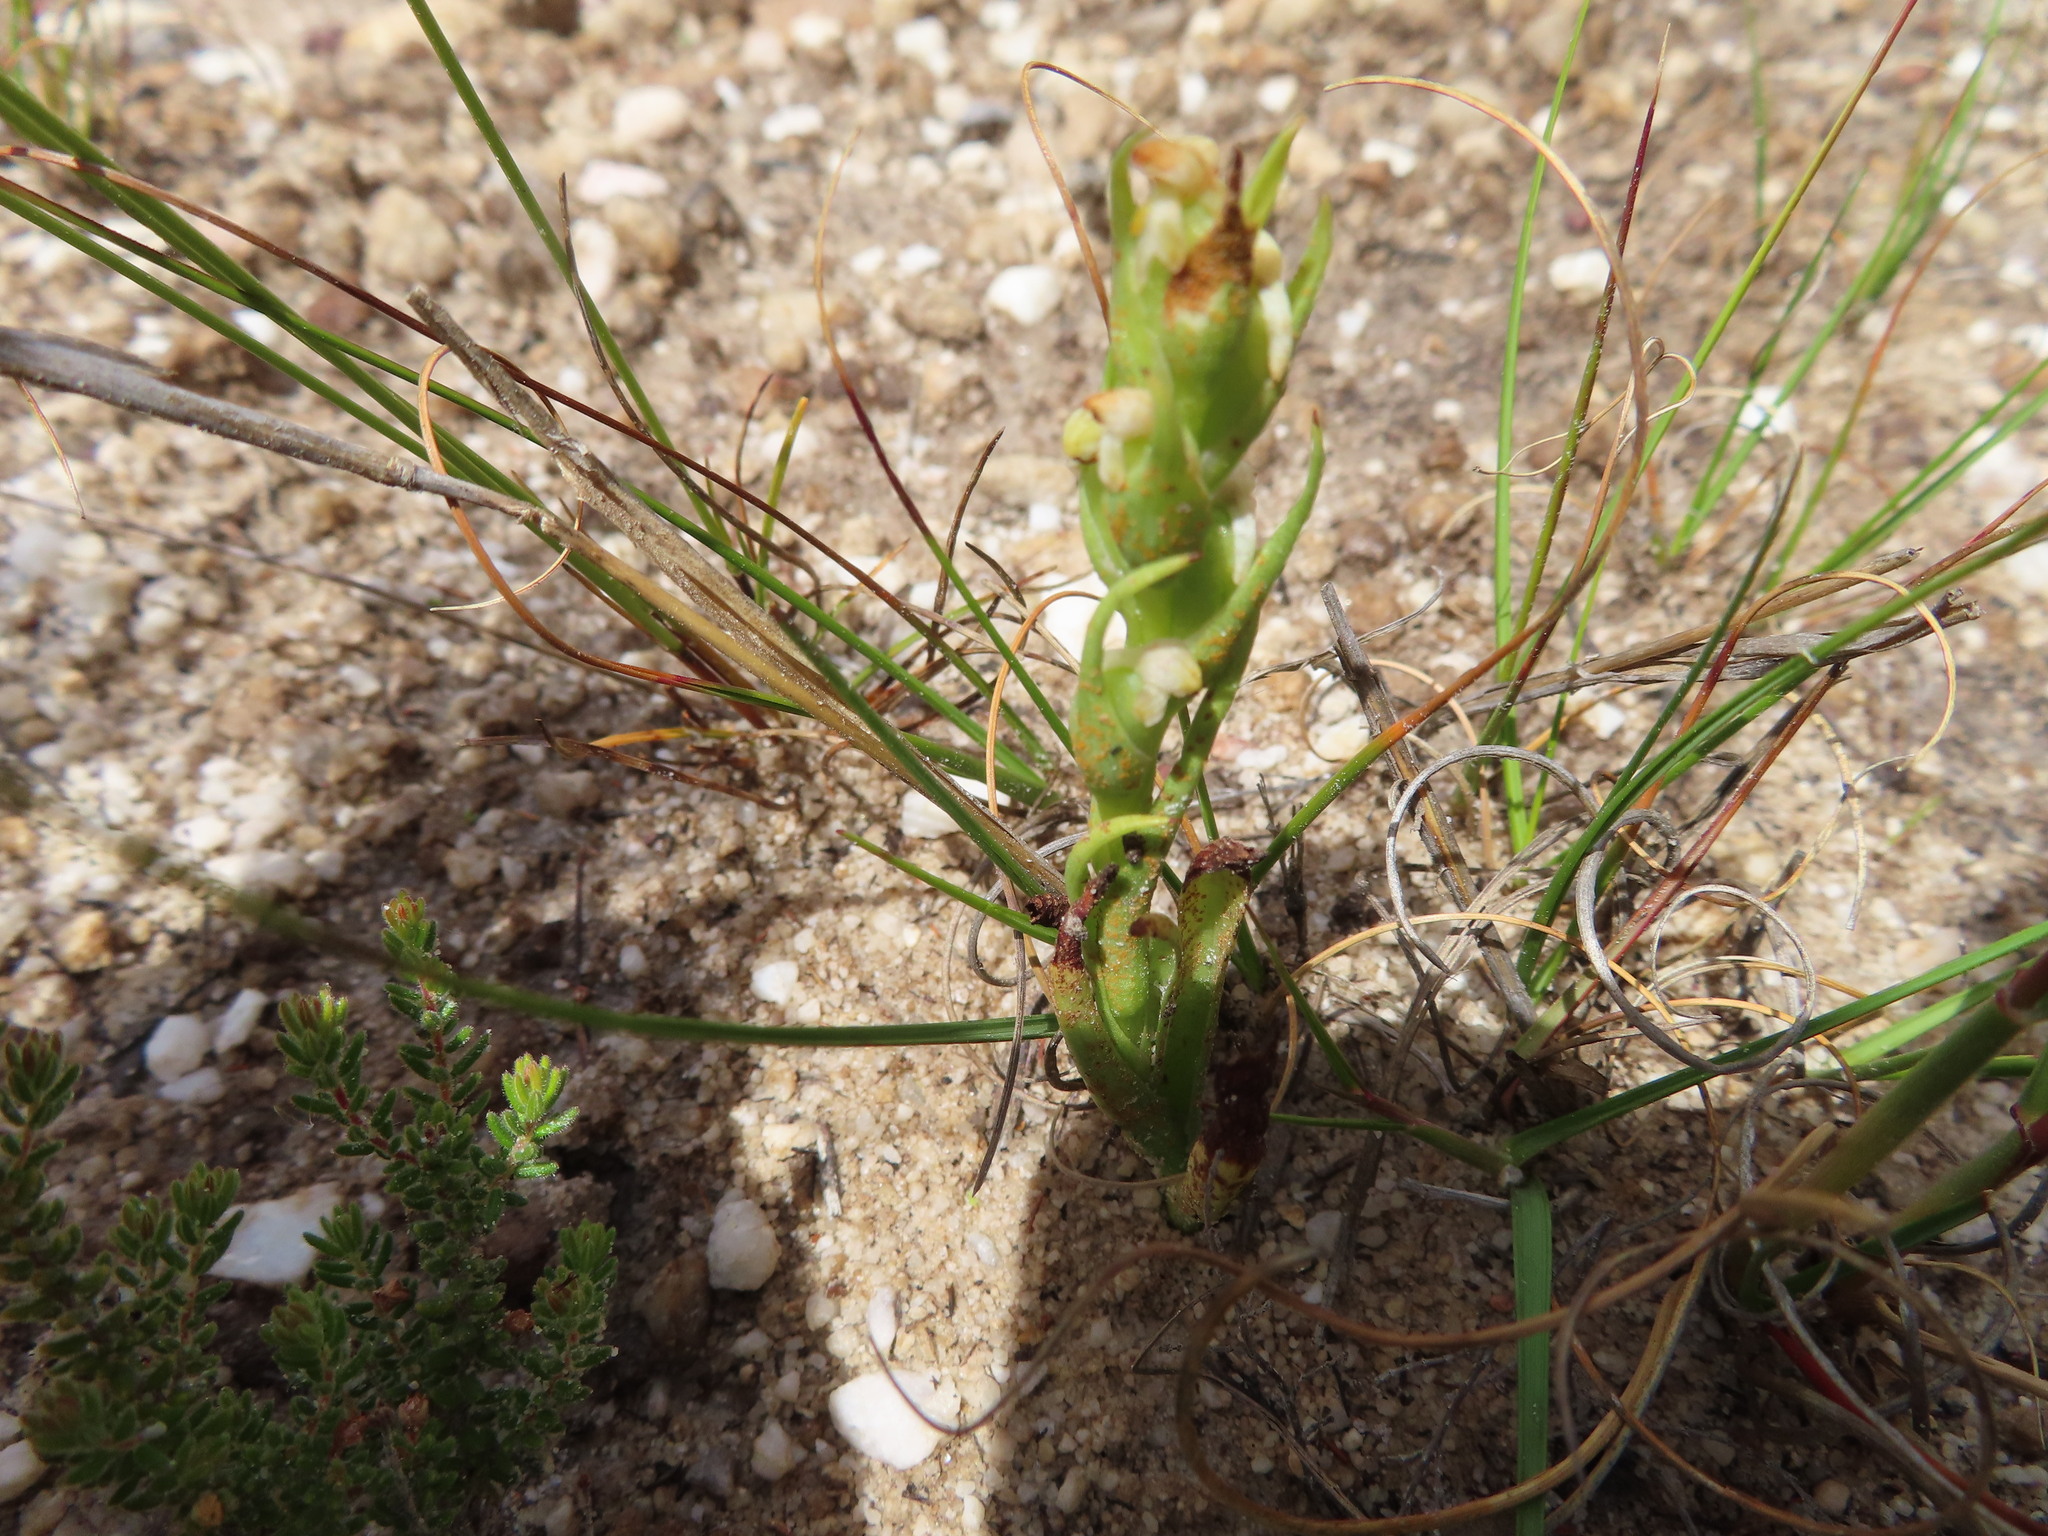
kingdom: Plantae
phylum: Tracheophyta
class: Liliopsida
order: Asparagales
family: Orchidaceae
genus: Disa
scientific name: Disa bracteata
